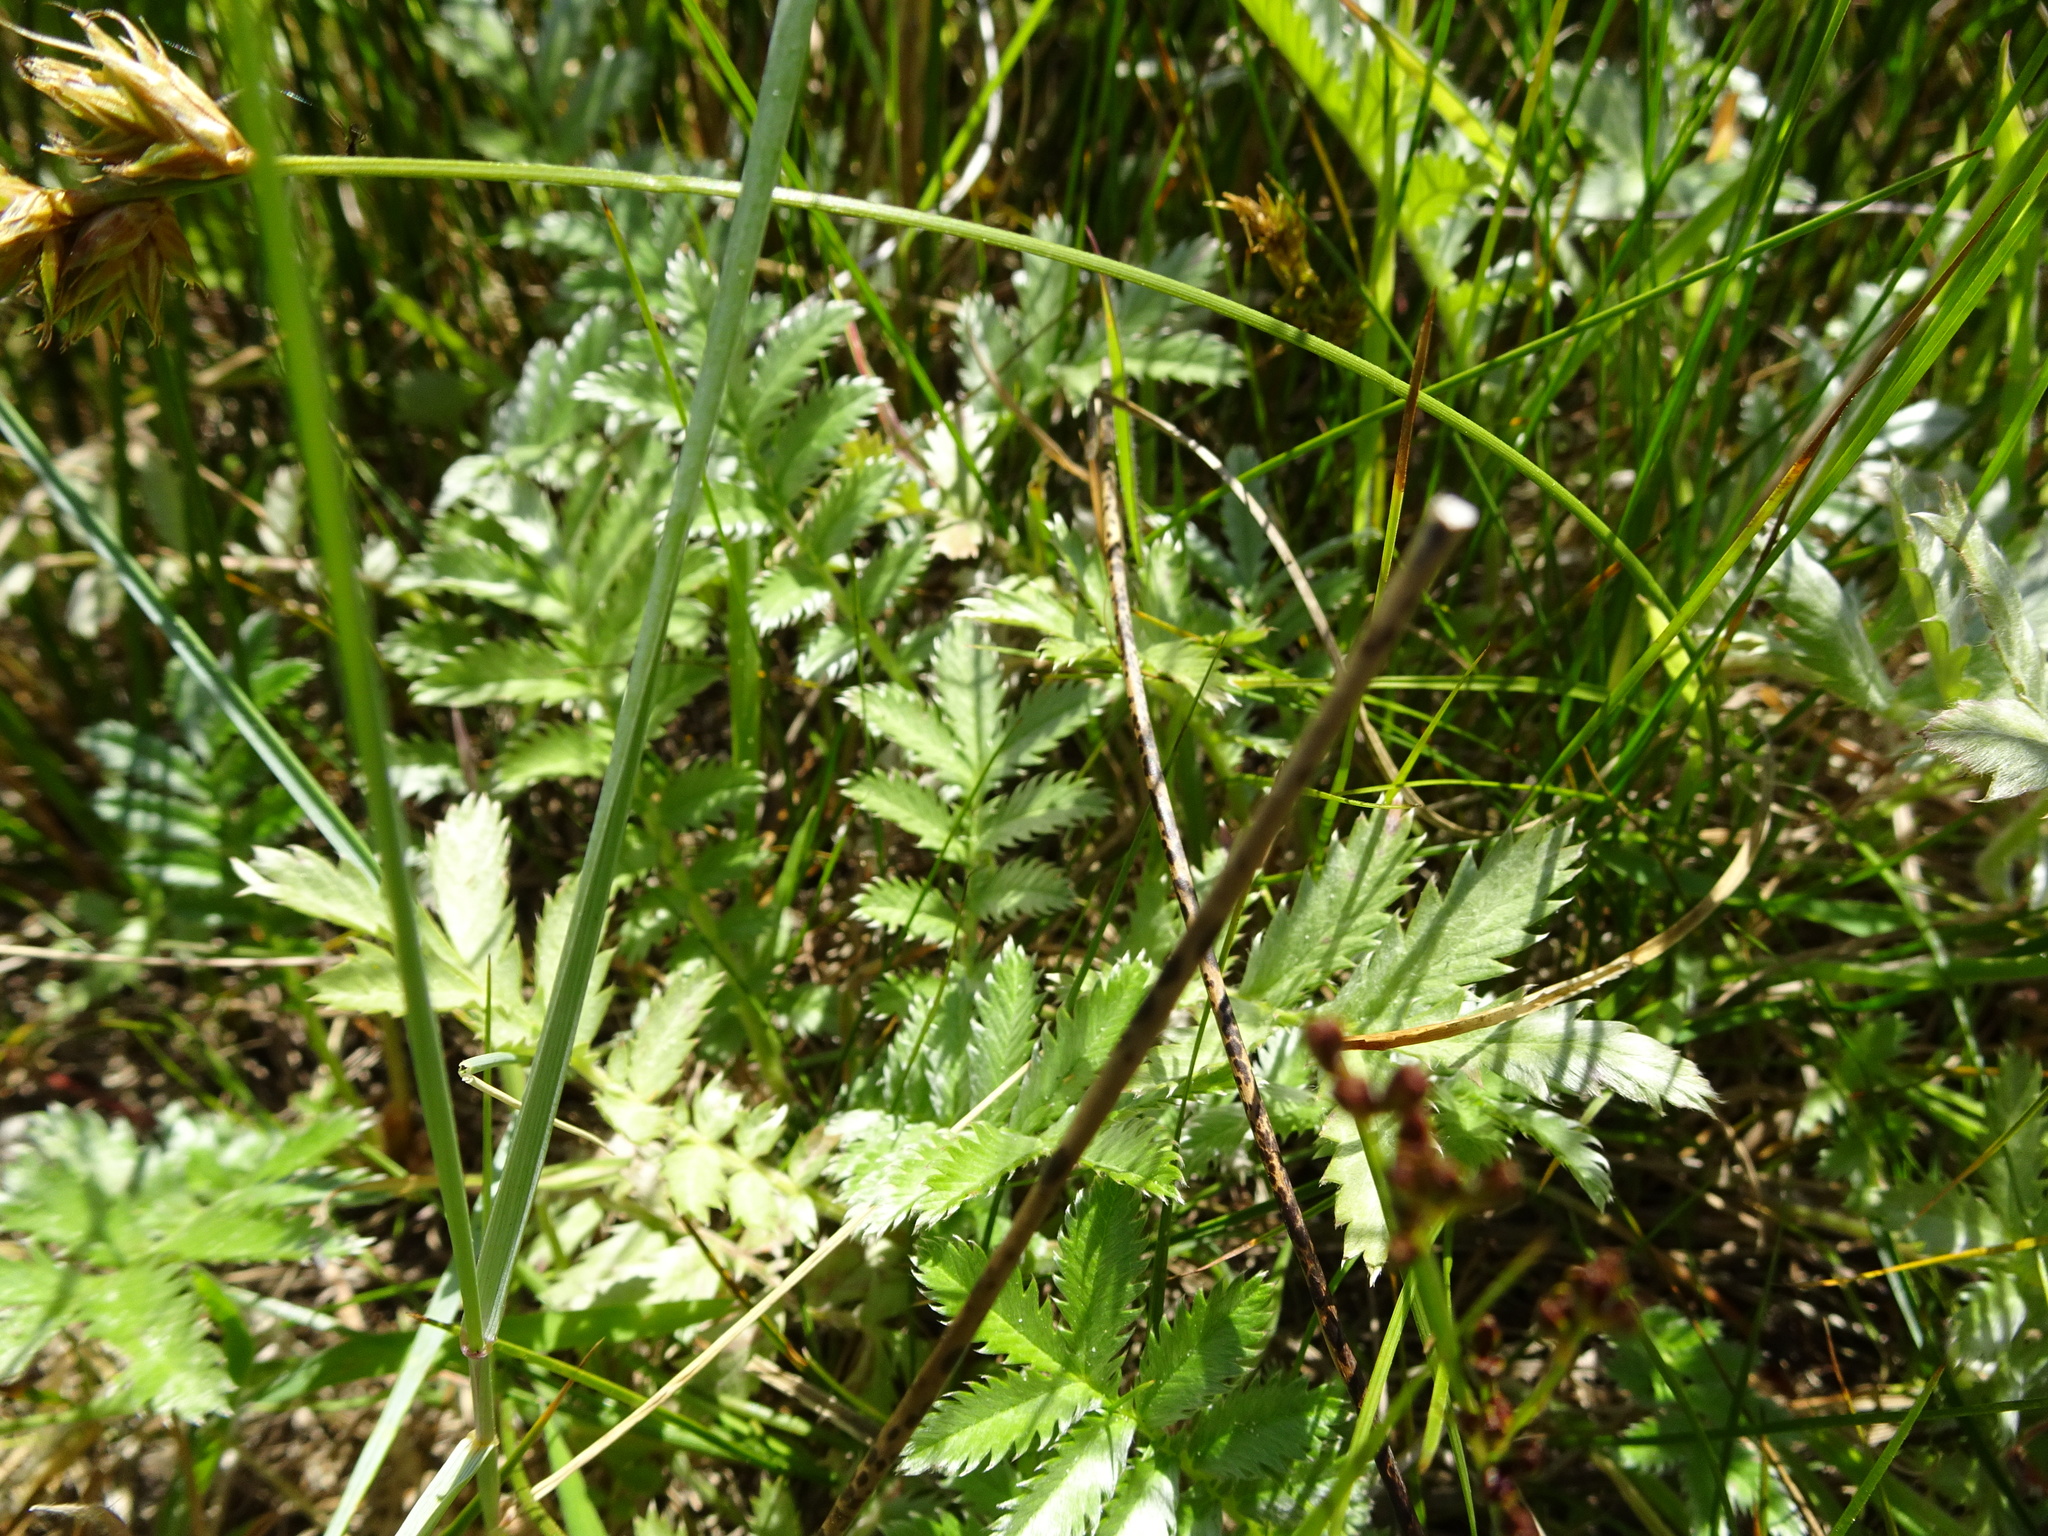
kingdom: Plantae
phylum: Tracheophyta
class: Magnoliopsida
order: Rosales
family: Rosaceae
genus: Argentina
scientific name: Argentina anserina
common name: Common silverweed
